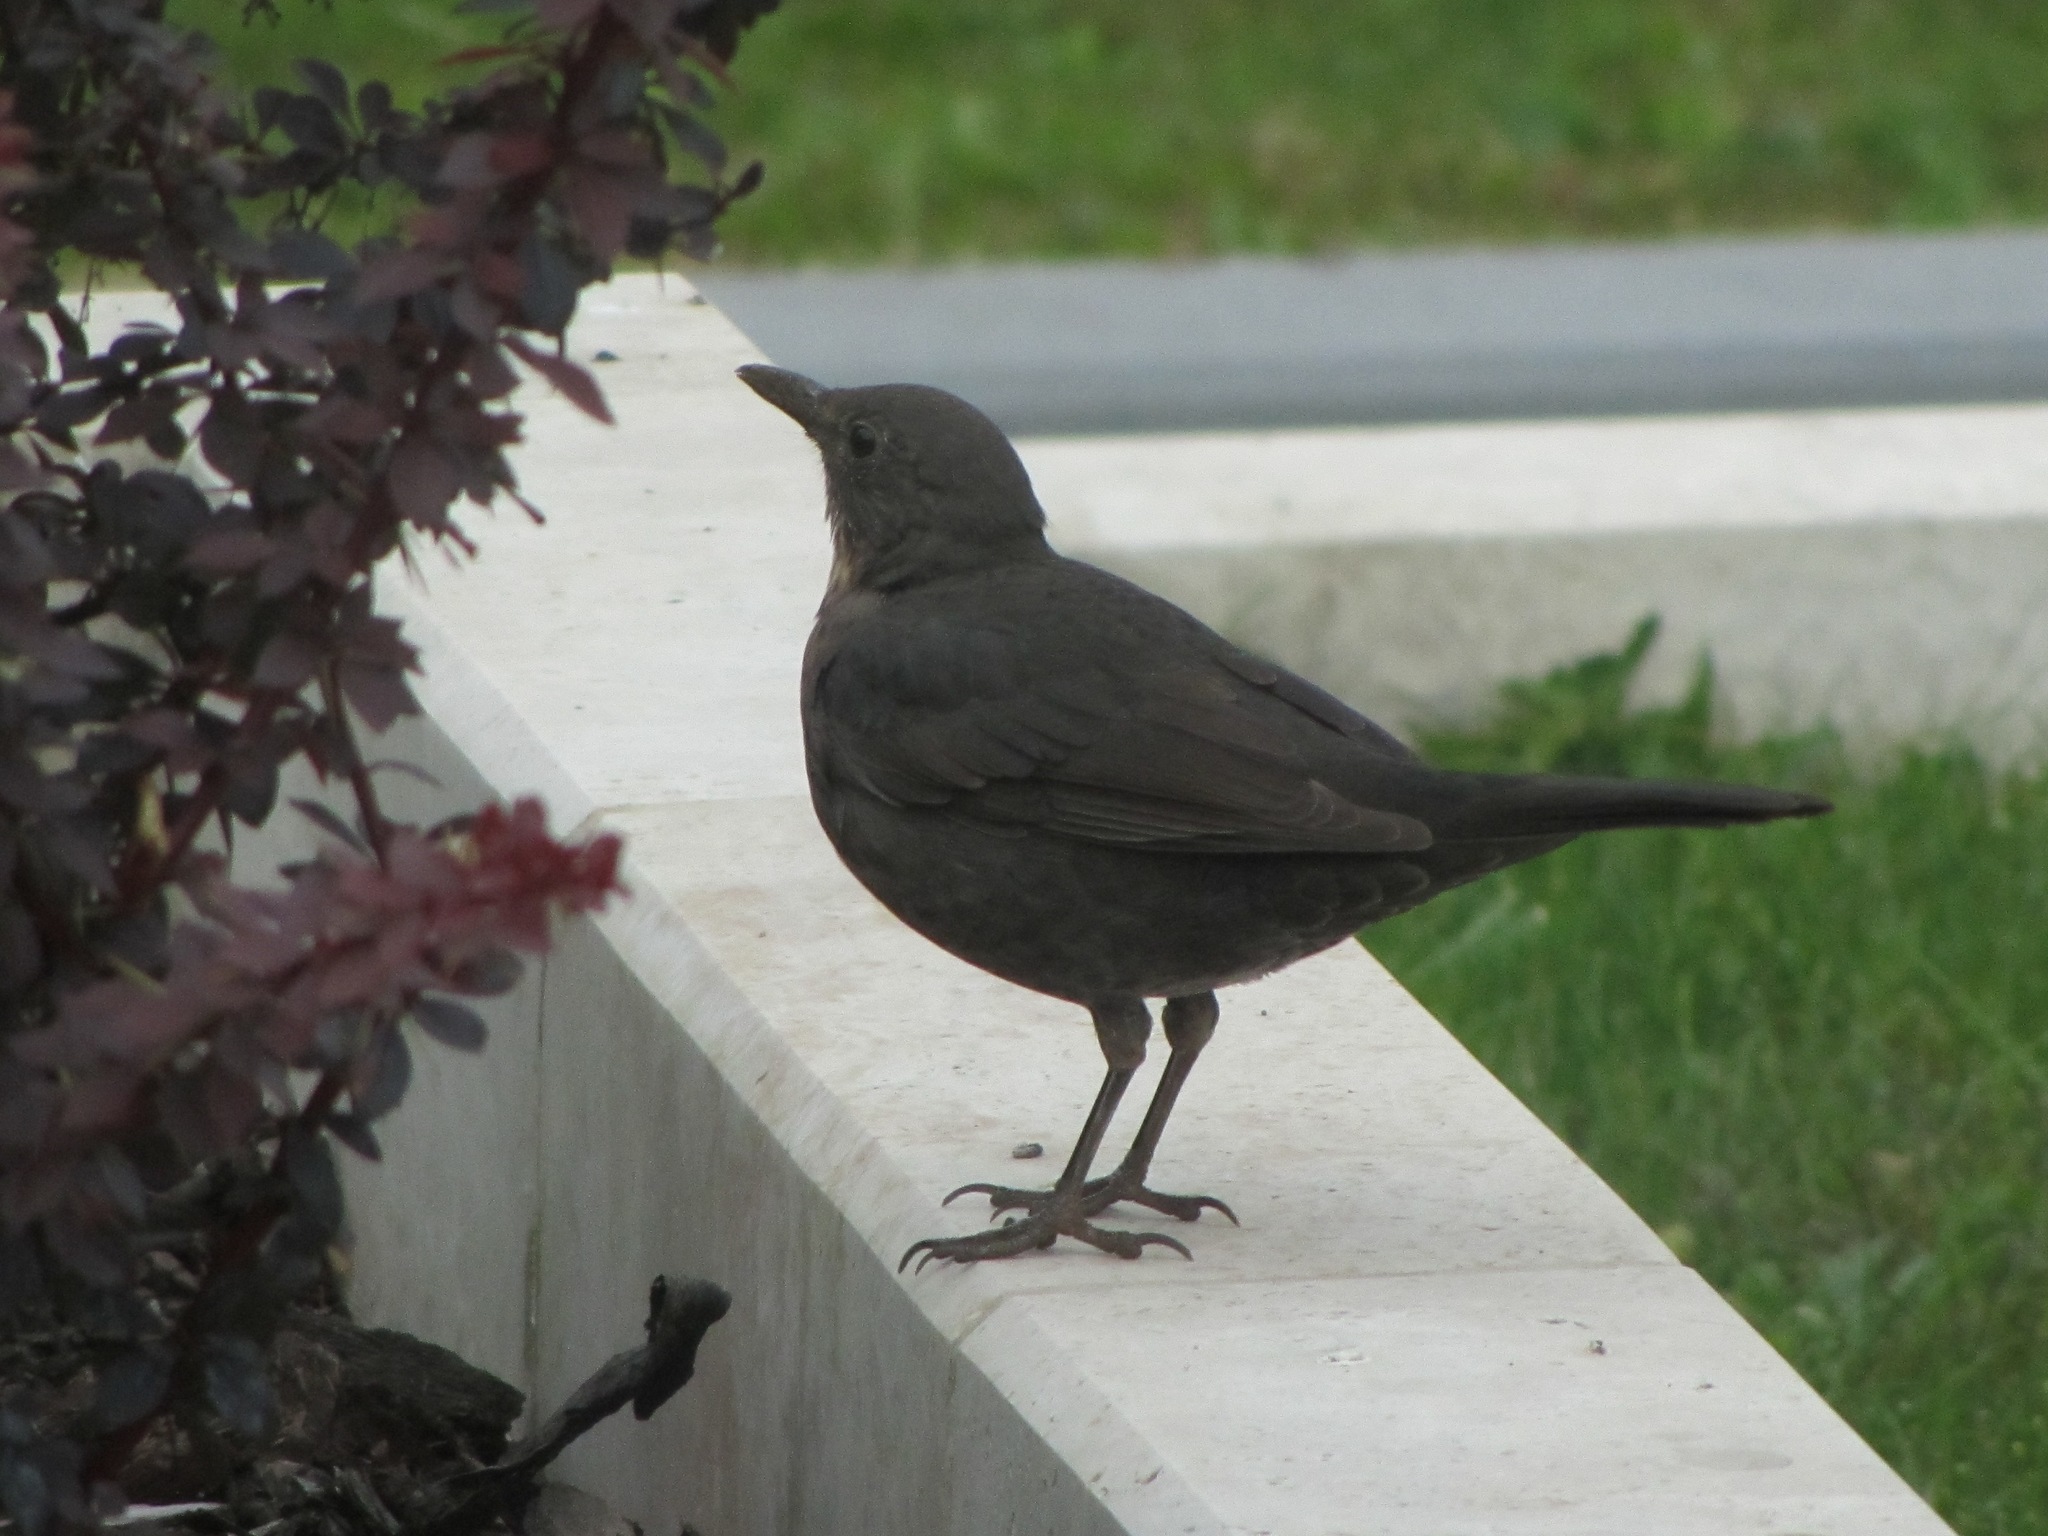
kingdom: Animalia
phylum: Chordata
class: Aves
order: Passeriformes
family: Turdidae
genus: Turdus
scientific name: Turdus merula
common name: Common blackbird
